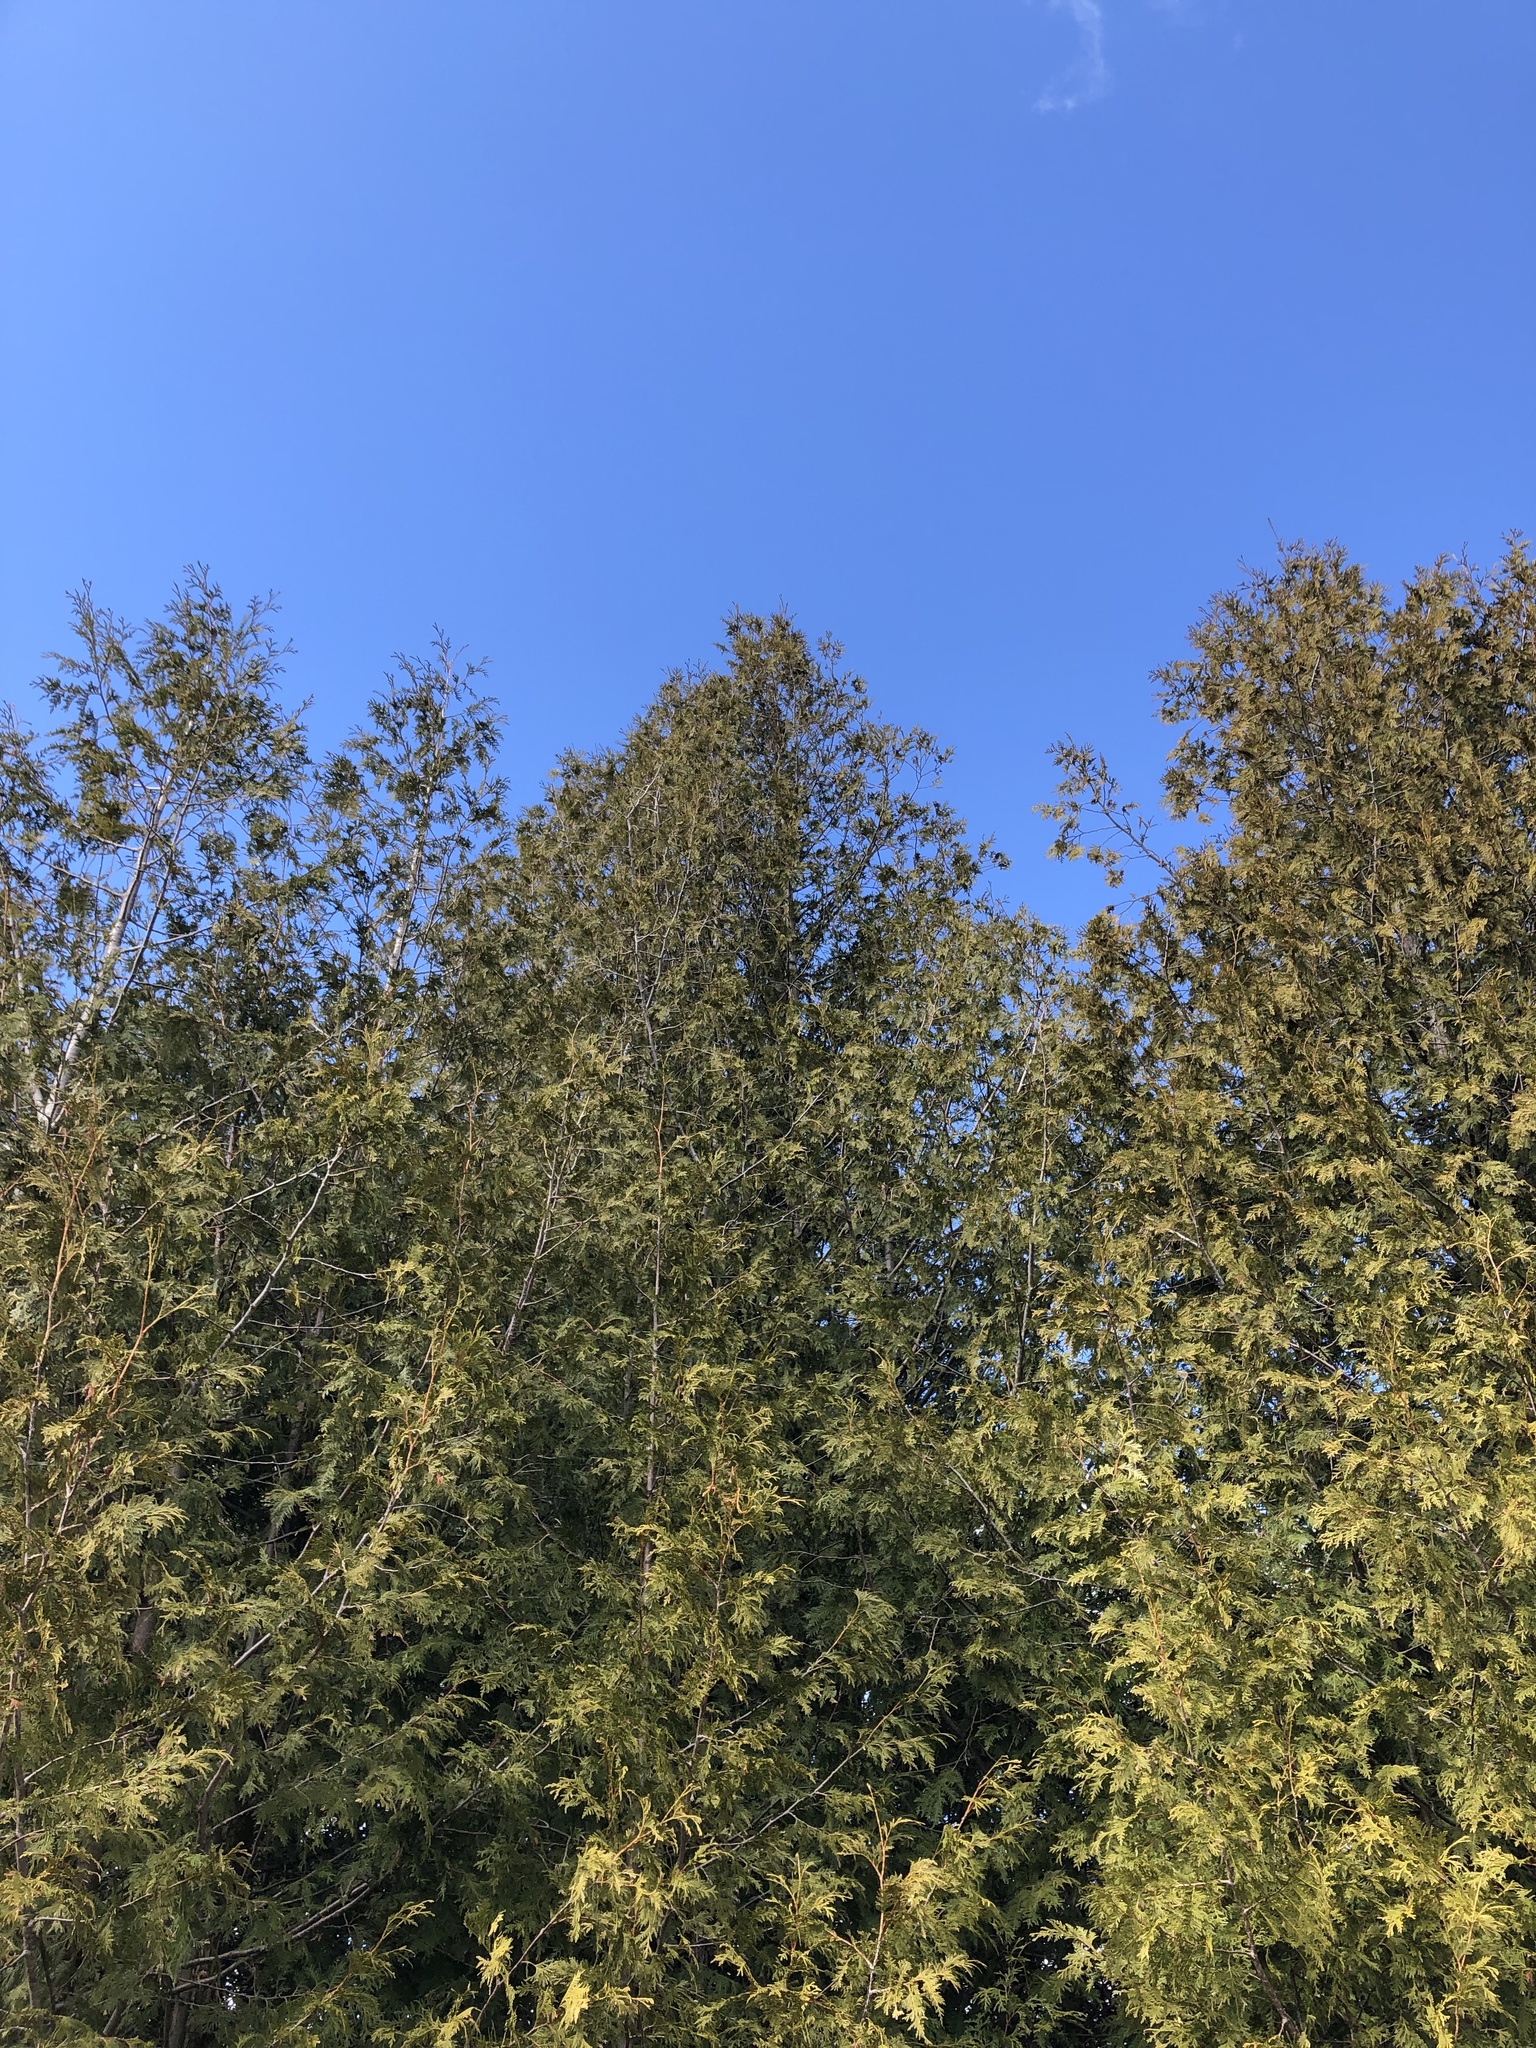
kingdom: Plantae
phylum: Tracheophyta
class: Pinopsida
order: Pinales
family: Cupressaceae
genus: Thuja
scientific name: Thuja occidentalis
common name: Northern white-cedar
